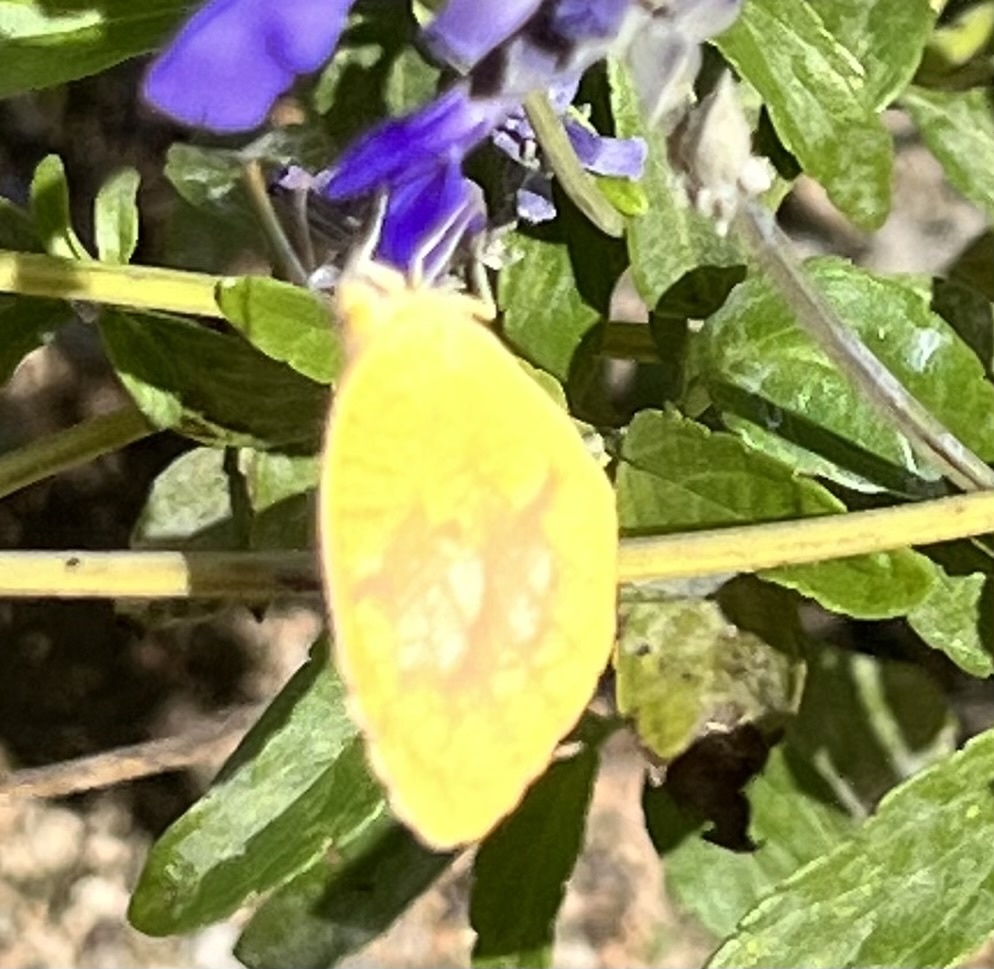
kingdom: Animalia
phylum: Arthropoda
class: Insecta
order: Lepidoptera
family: Pieridae
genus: Abaeis
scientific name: Abaeis nicippe
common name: Sleepy orange
